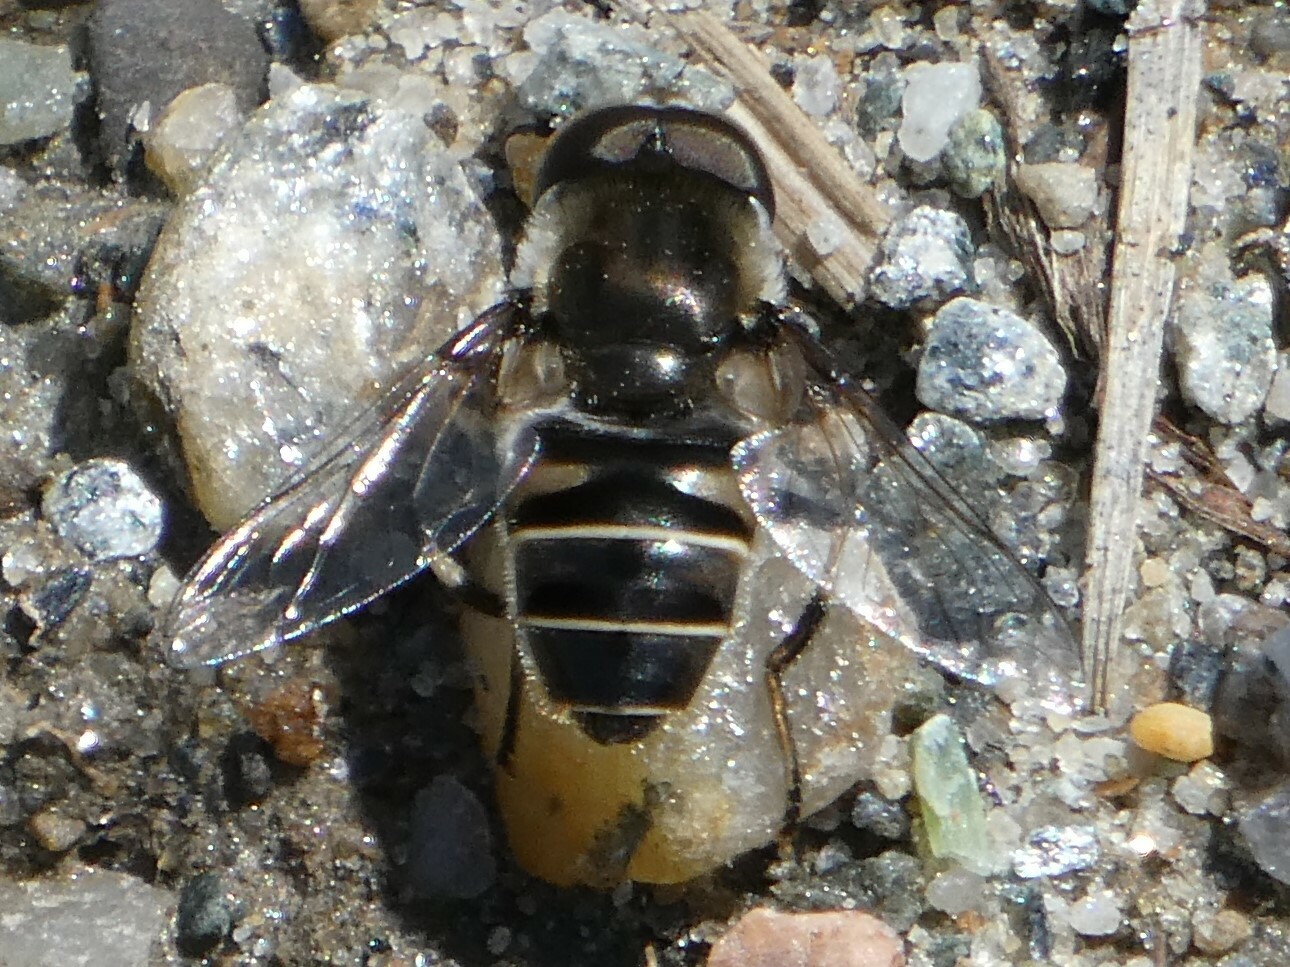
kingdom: Animalia
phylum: Arthropoda
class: Insecta
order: Diptera
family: Syrphidae
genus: Eristalis
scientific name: Eristalis dimidiata
